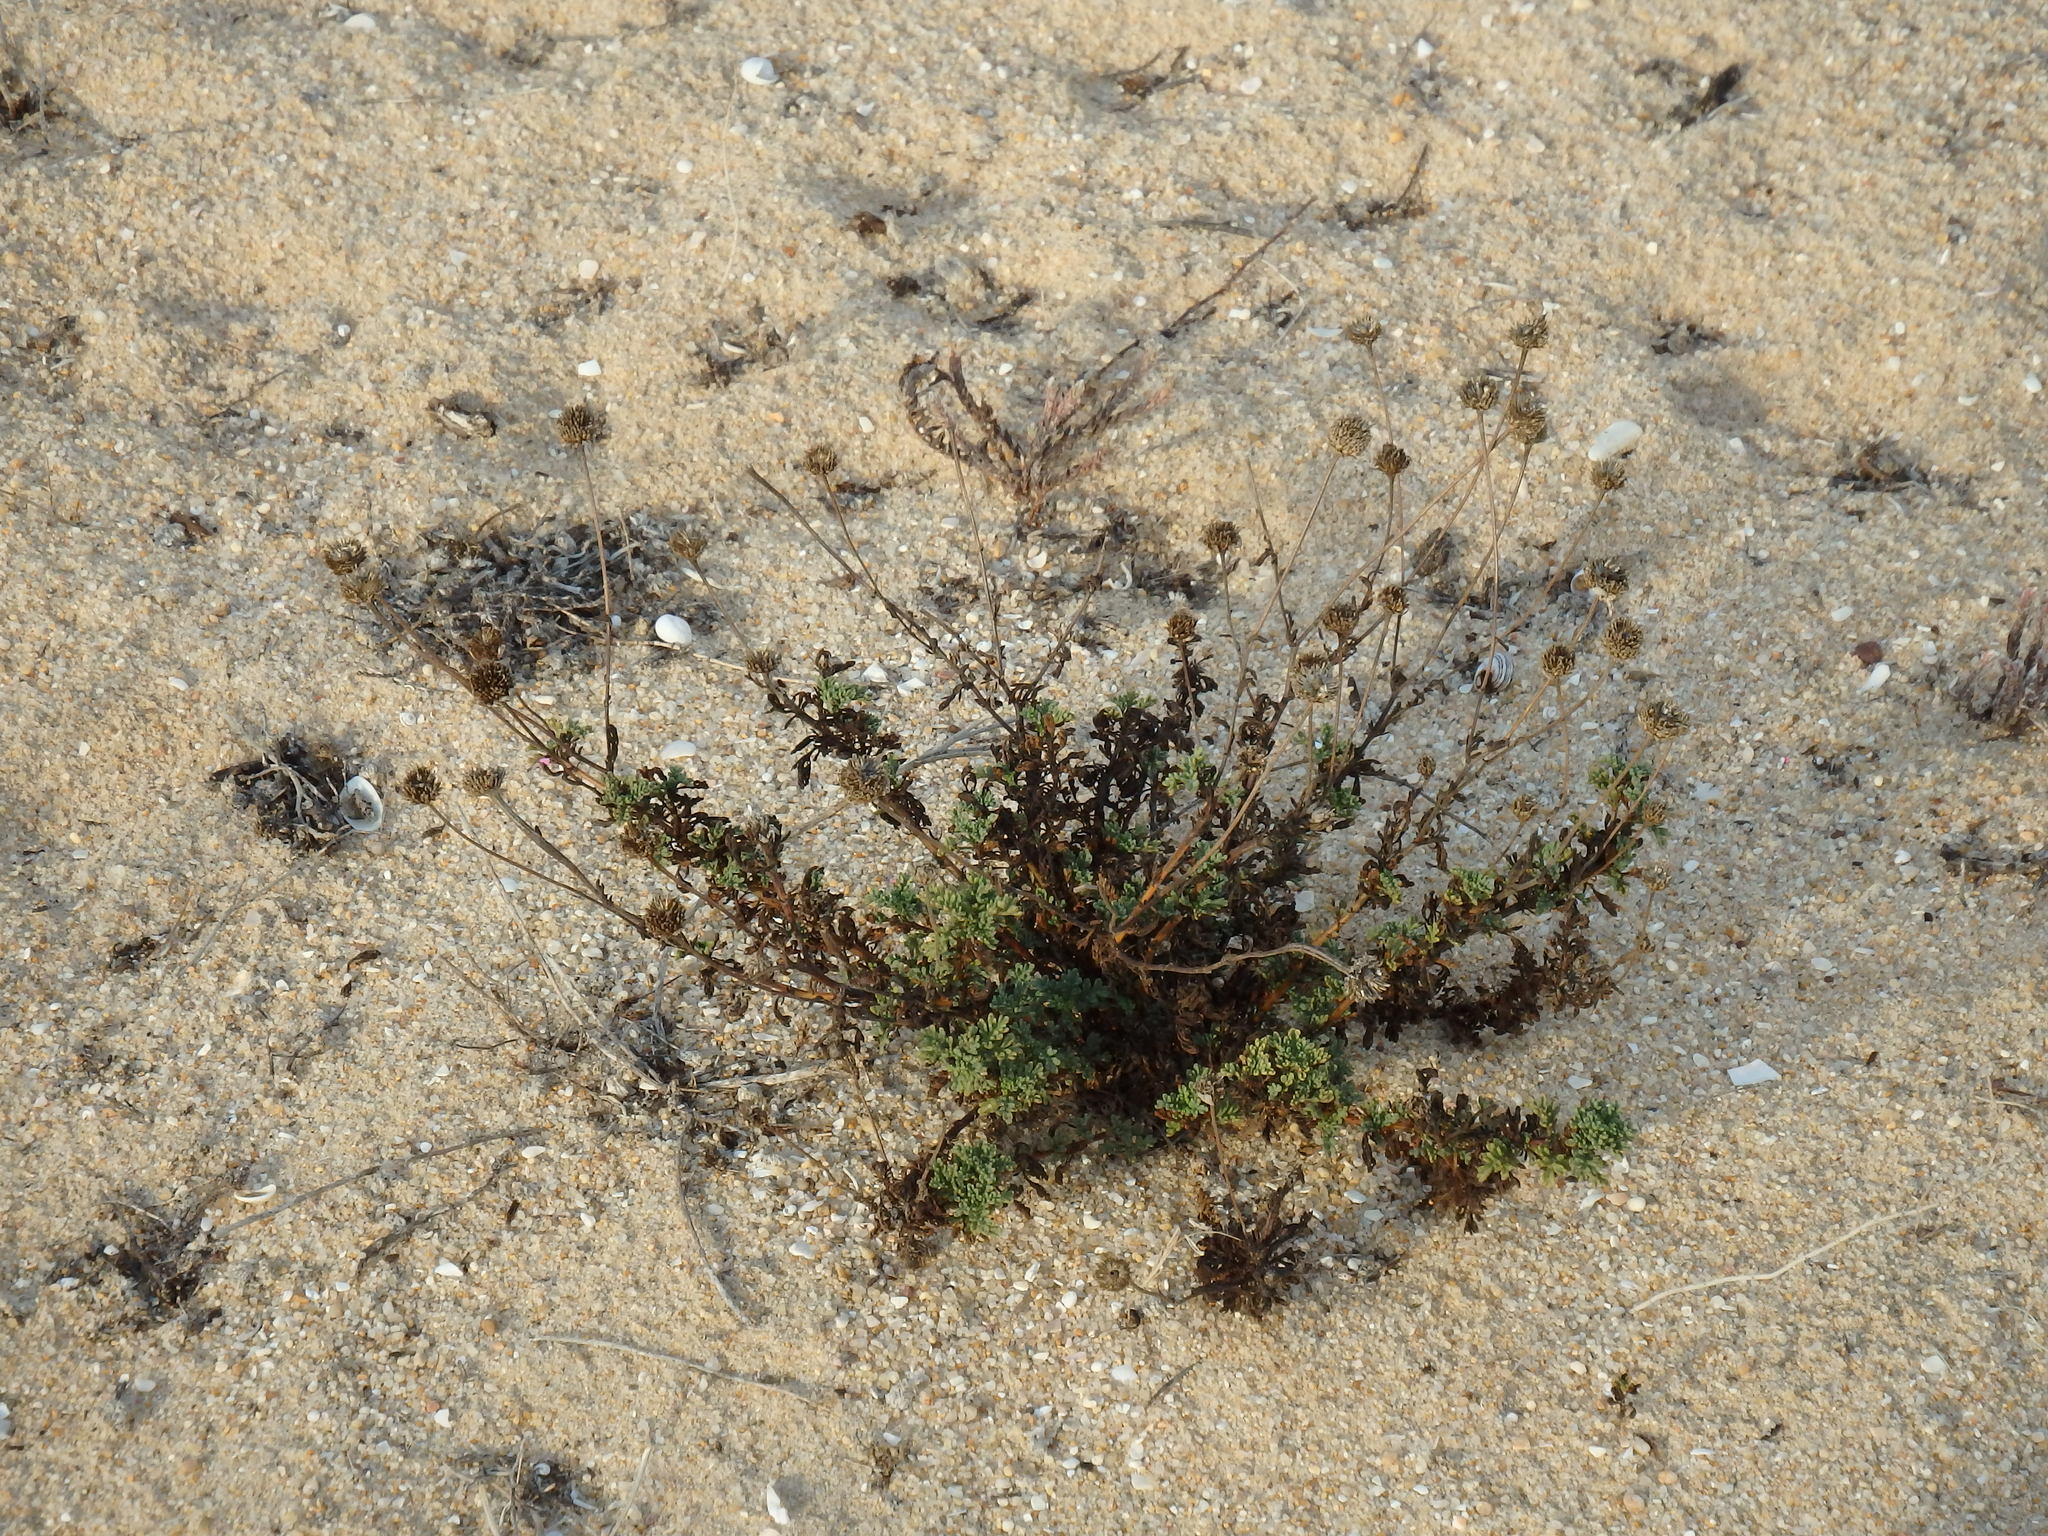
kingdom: Plantae
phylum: Tracheophyta
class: Magnoliopsida
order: Asterales
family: Asteraceae
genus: Anthemis
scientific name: Anthemis maritima
